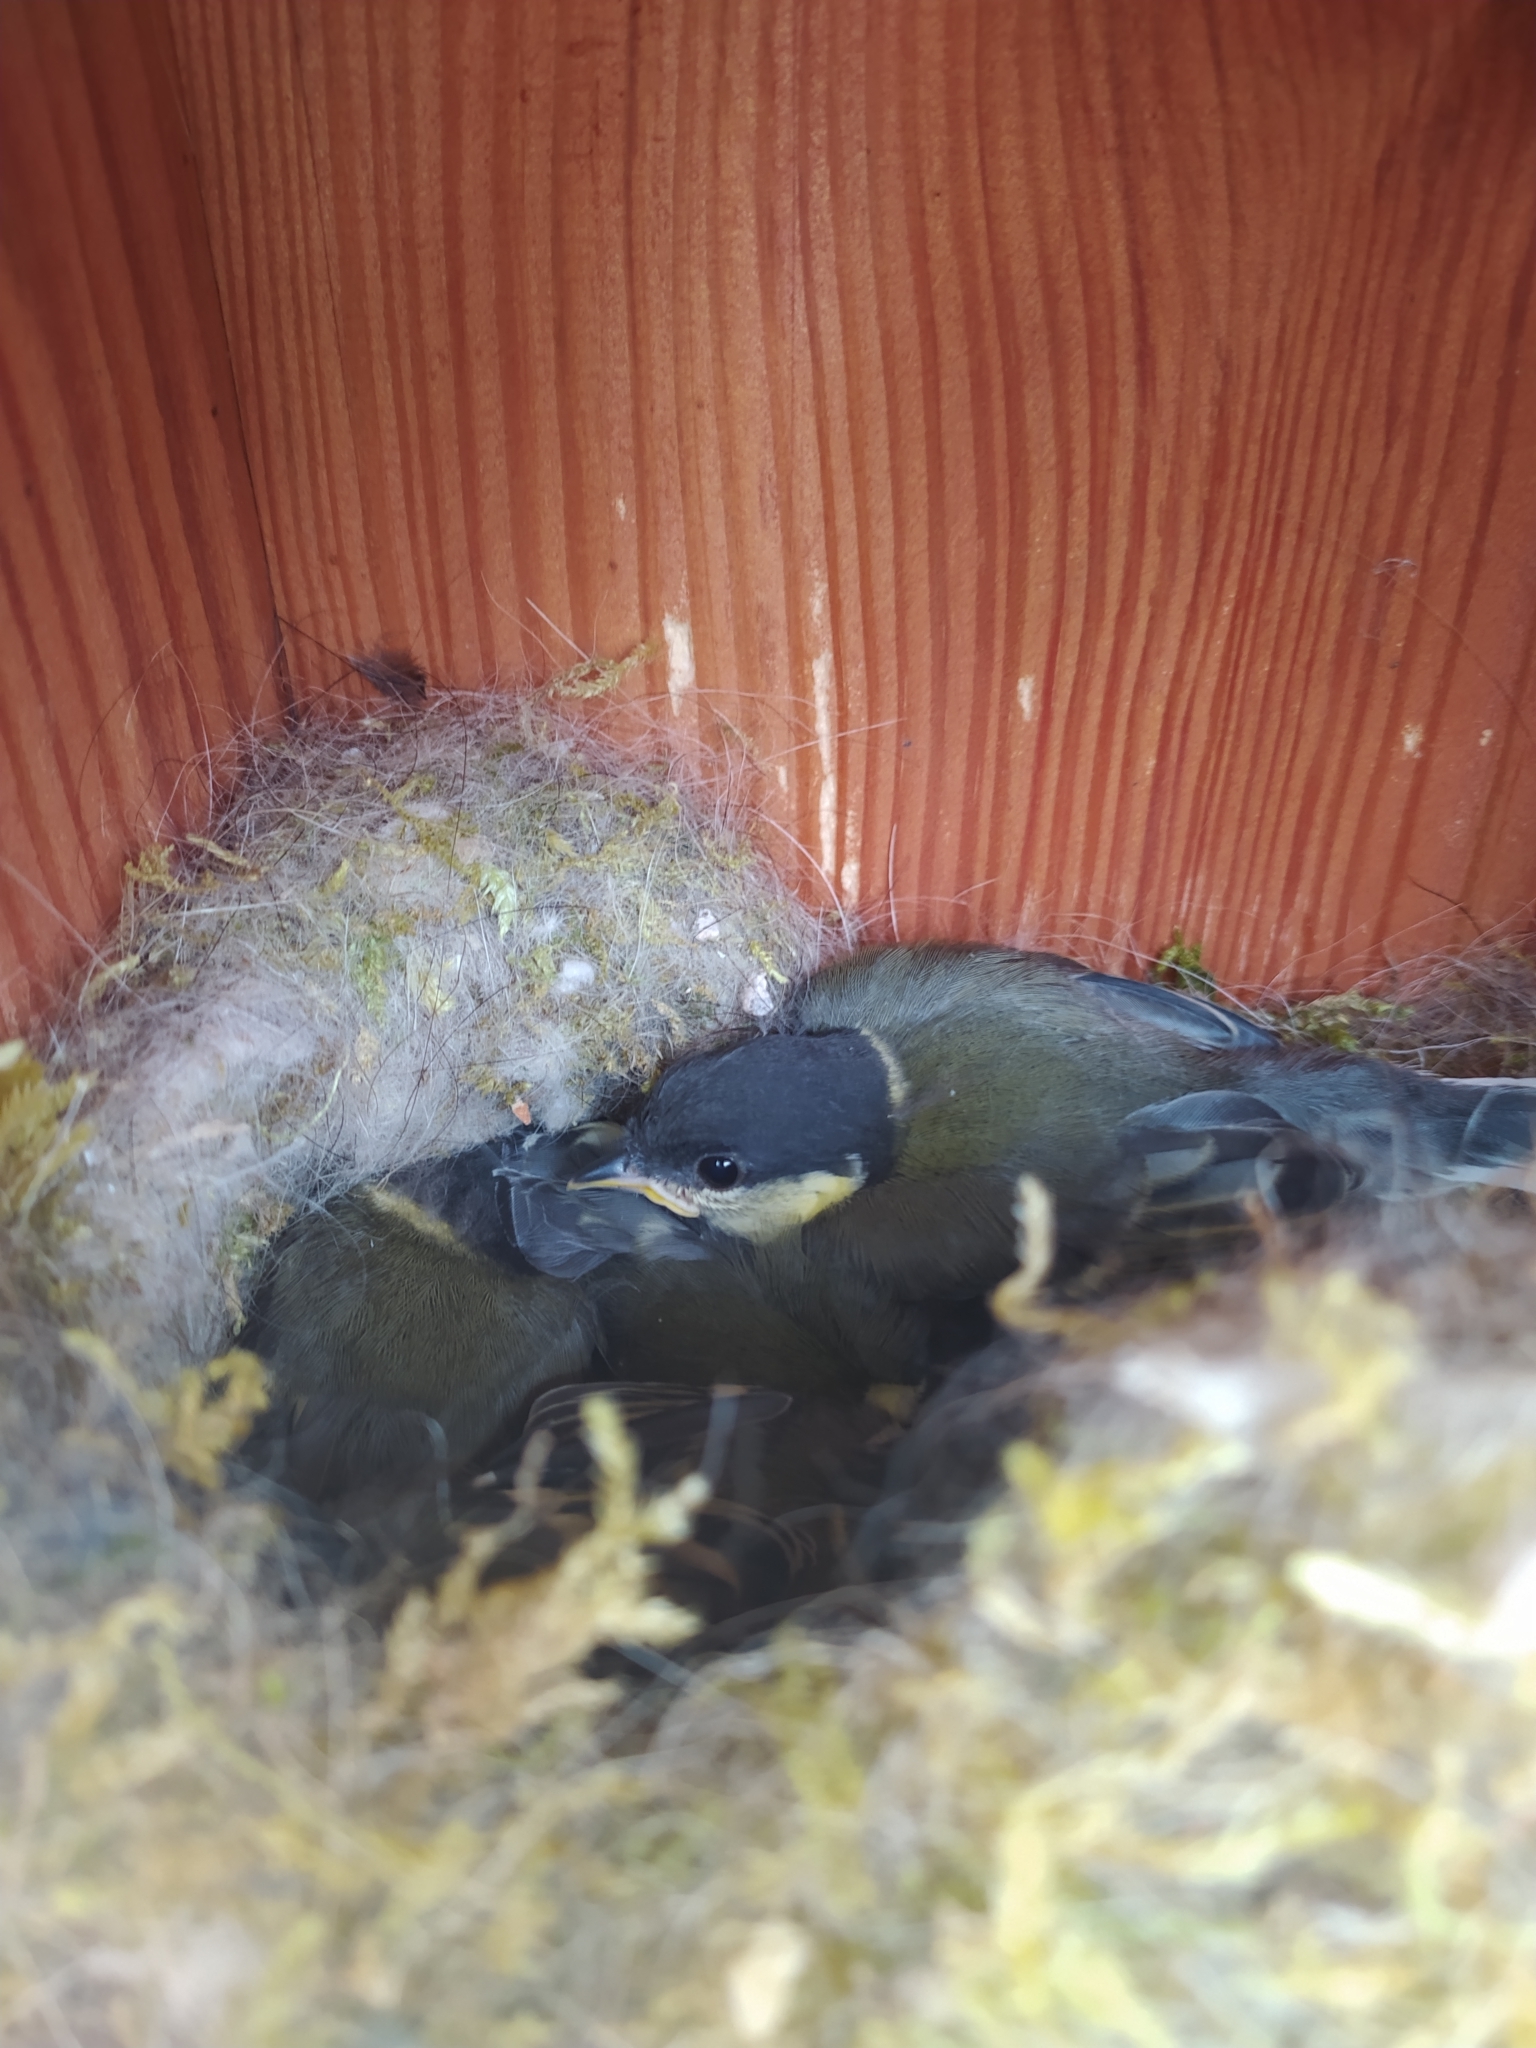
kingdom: Animalia
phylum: Chordata
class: Aves
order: Passeriformes
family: Paridae
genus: Parus
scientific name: Parus major
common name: Great tit
